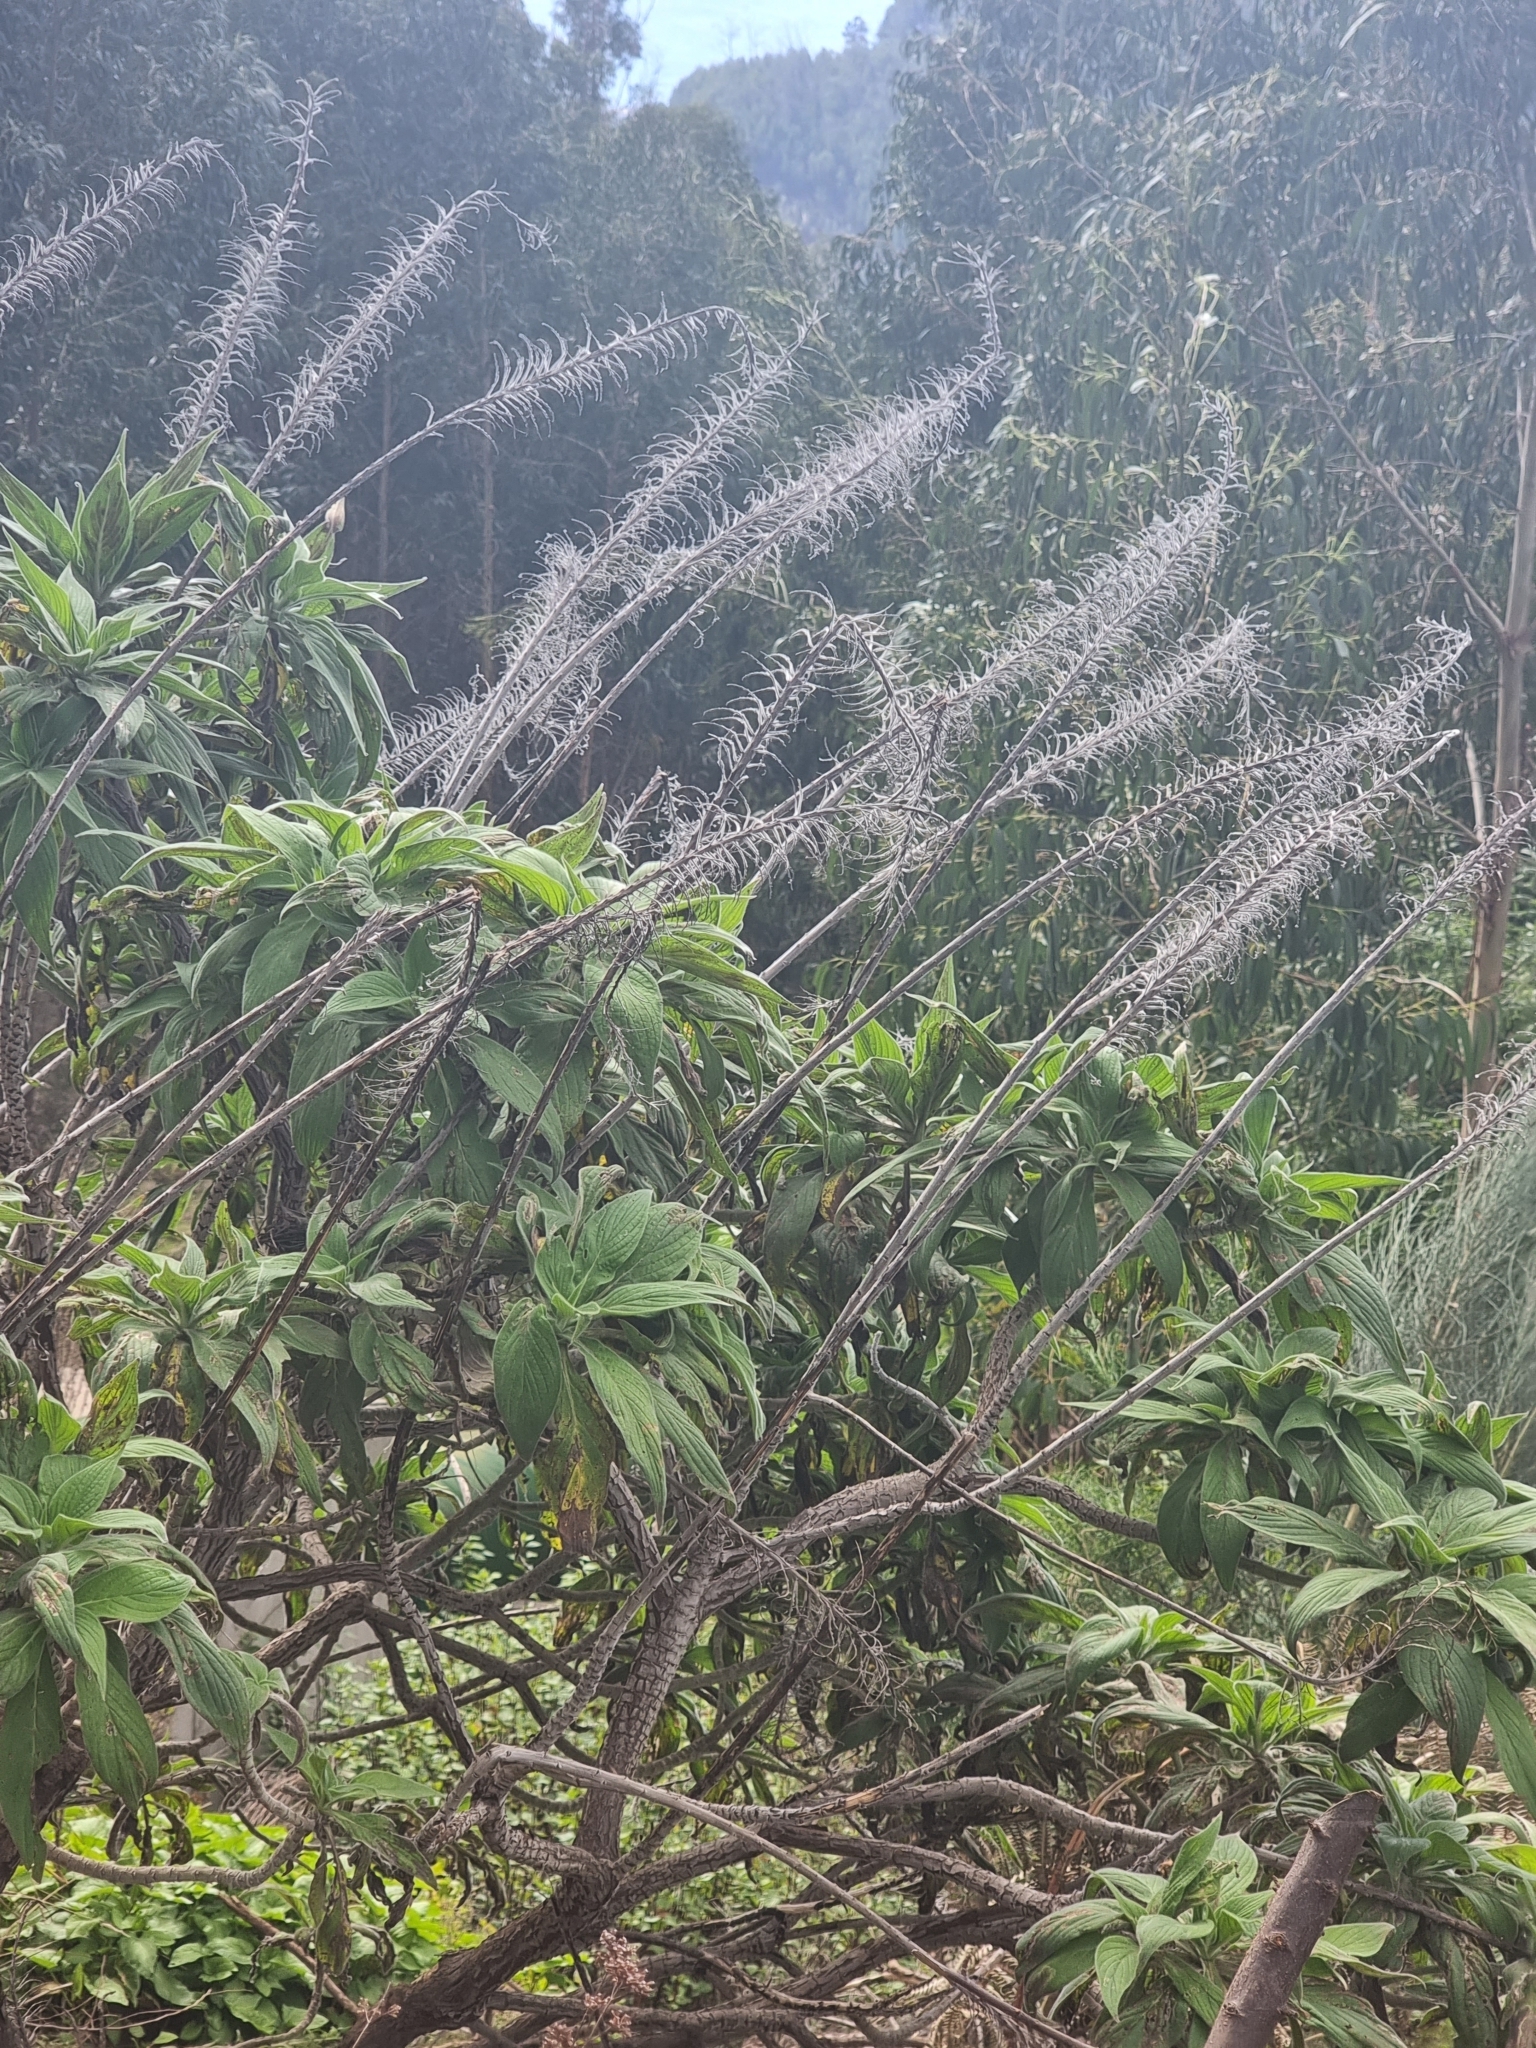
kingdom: Plantae
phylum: Tracheophyta
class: Magnoliopsida
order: Boraginales
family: Boraginaceae
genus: Echium
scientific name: Echium candicans
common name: Pride of madeira
